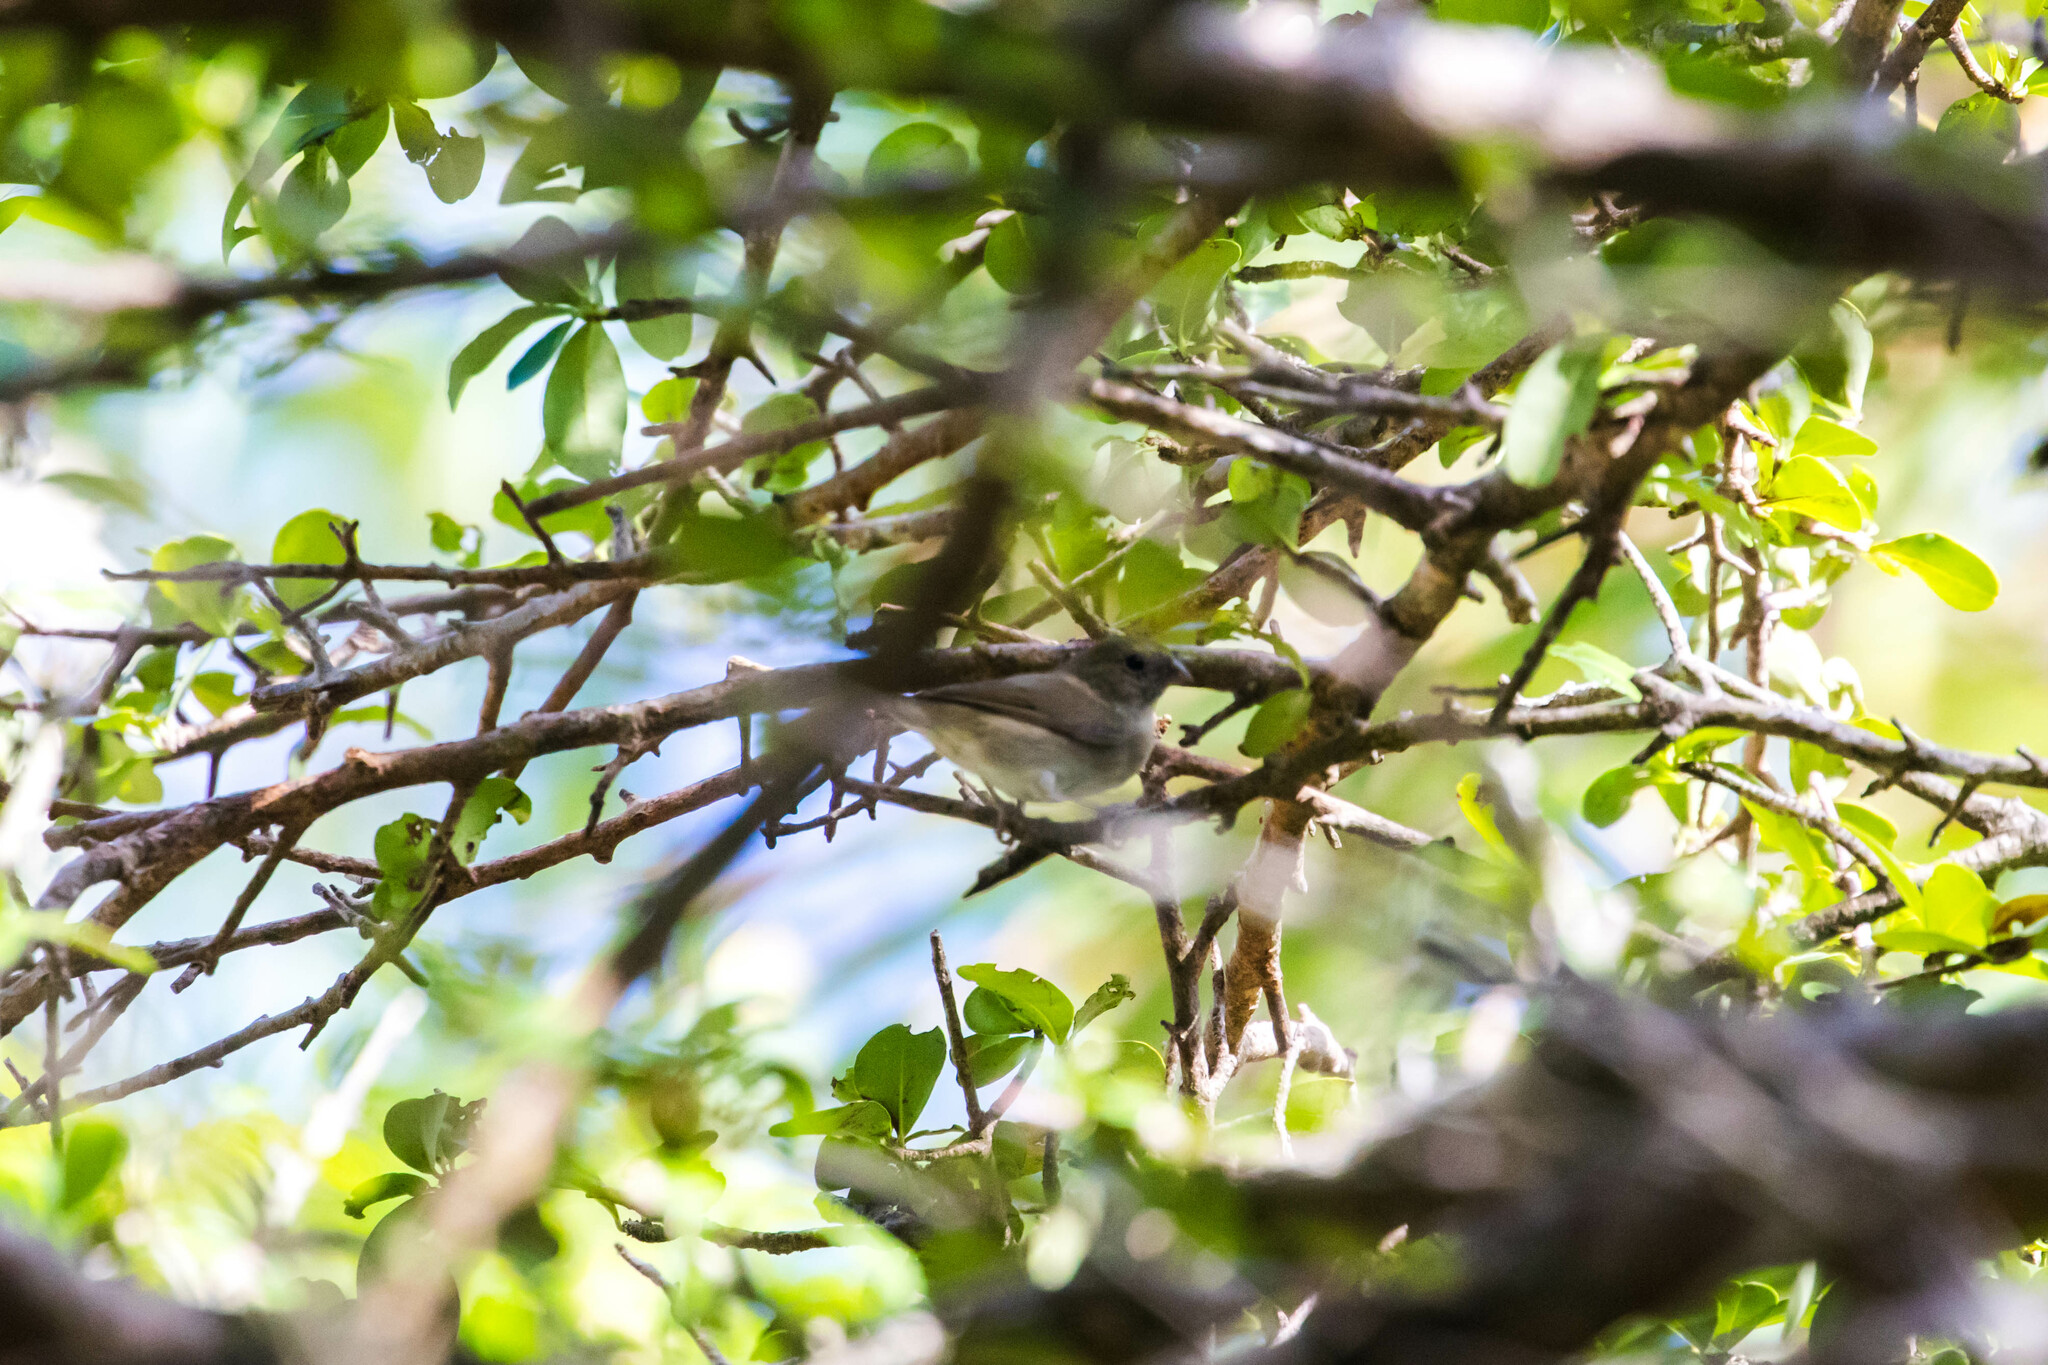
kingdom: Animalia
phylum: Chordata
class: Aves
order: Passeriformes
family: Thraupidae
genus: Melanospiza
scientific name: Melanospiza bicolor
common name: Black-faced grassquit
